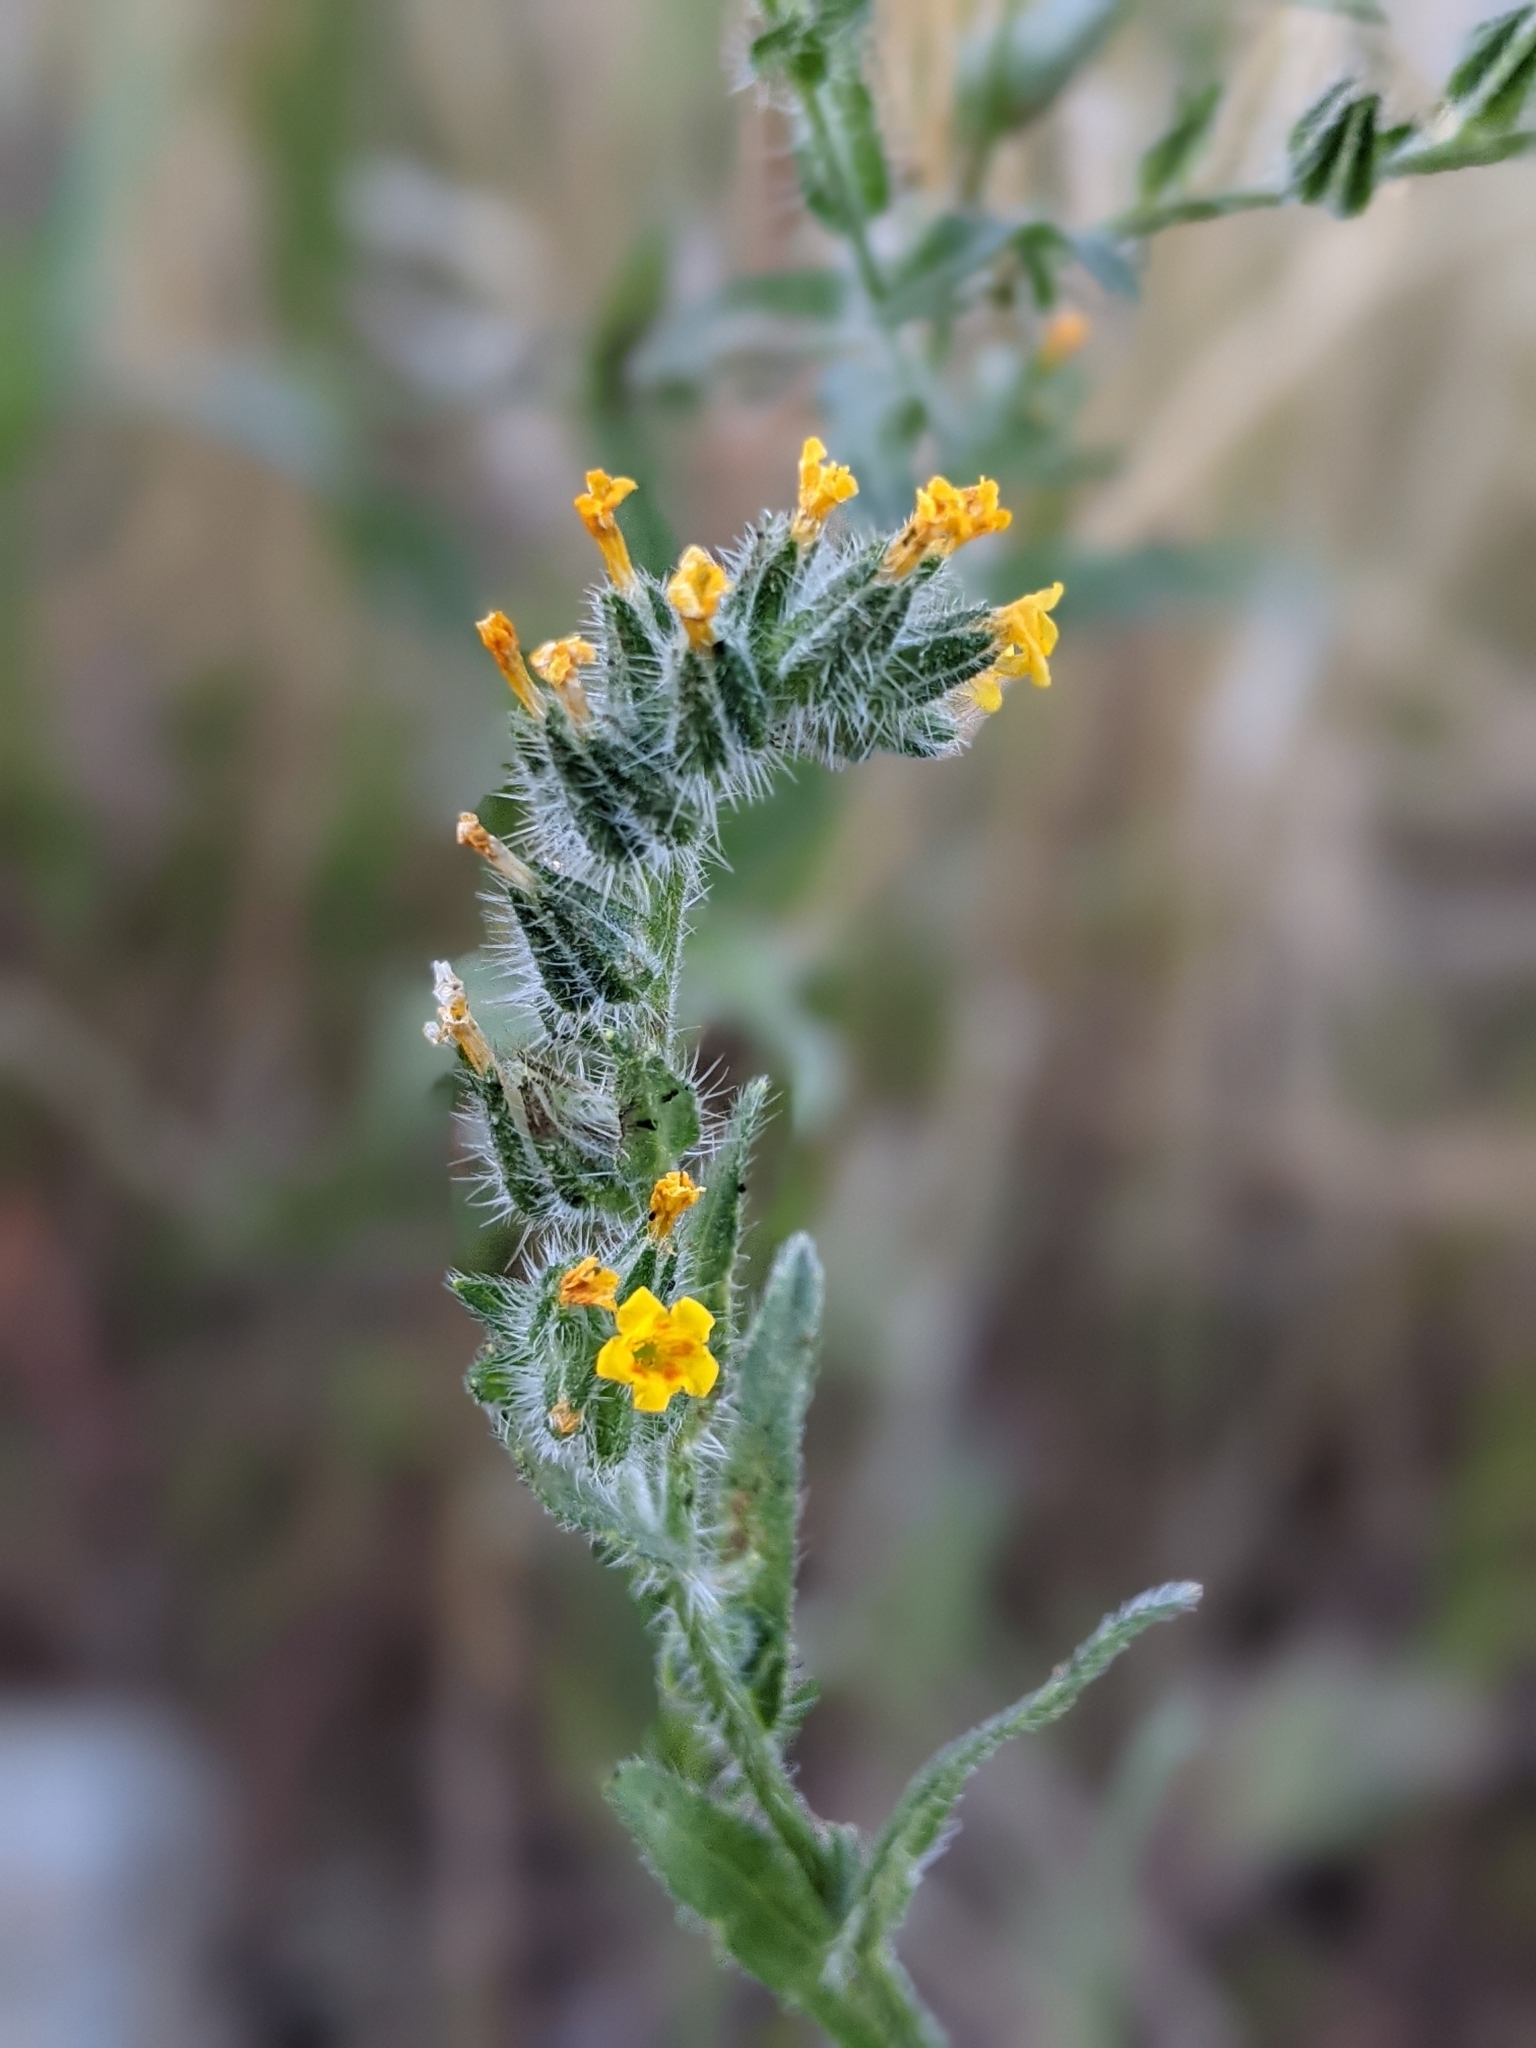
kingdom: Plantae
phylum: Tracheophyta
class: Magnoliopsida
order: Boraginales
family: Boraginaceae
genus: Amsinckia
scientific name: Amsinckia menziesii
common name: Menzies' fiddleneck
